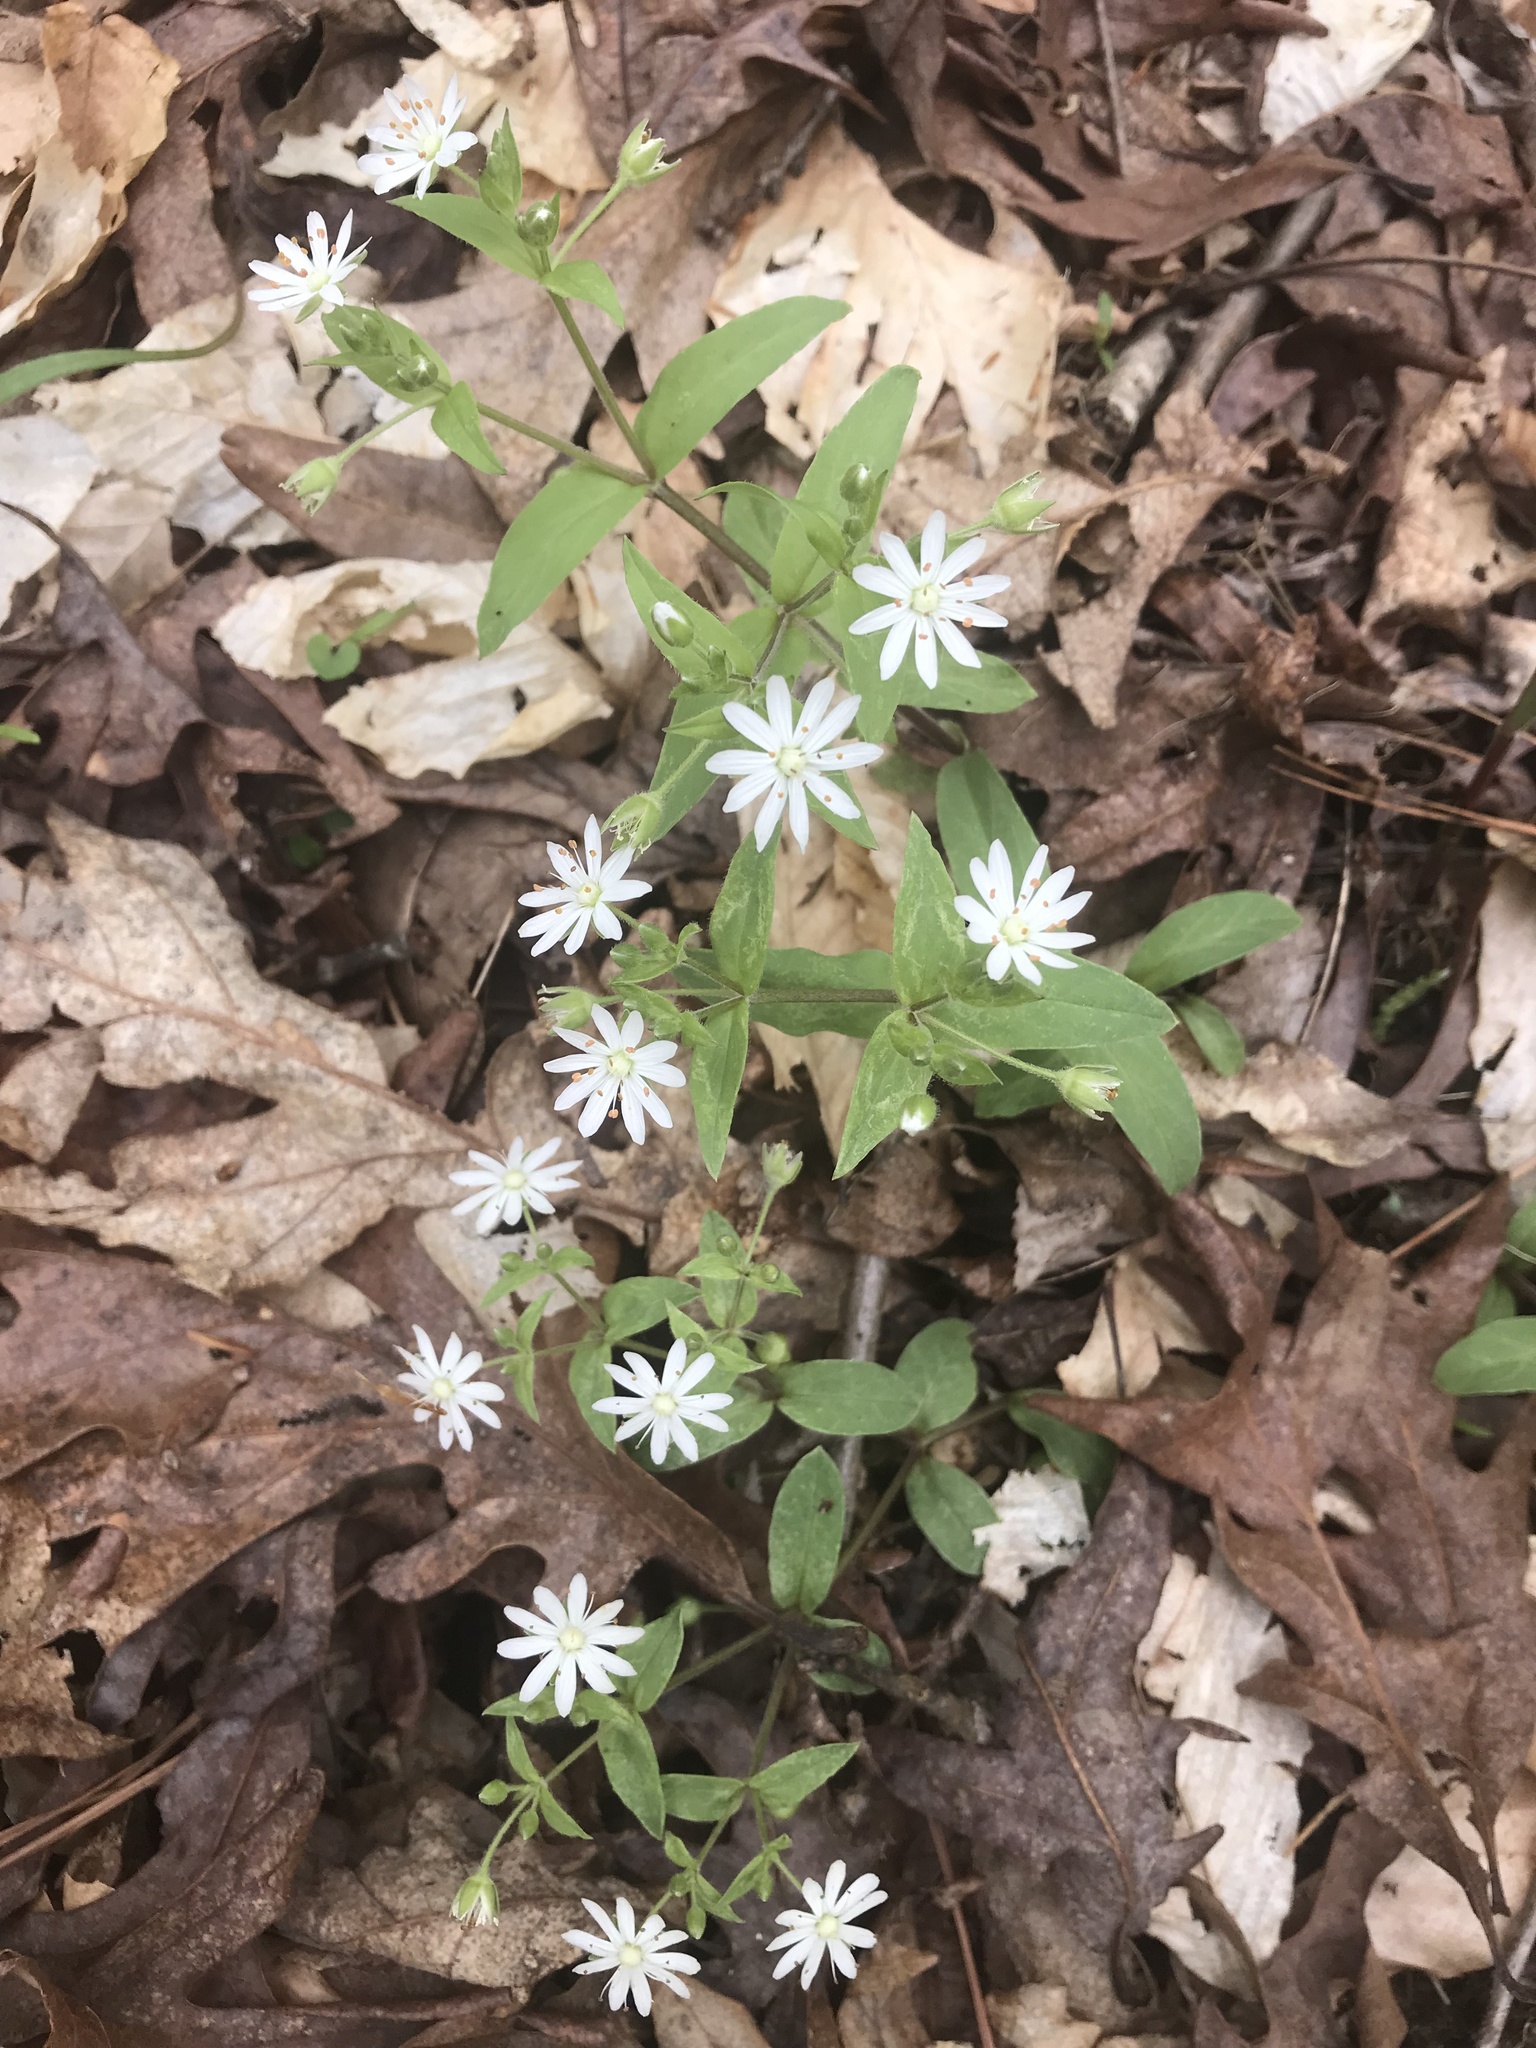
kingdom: Plantae
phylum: Tracheophyta
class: Magnoliopsida
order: Caryophyllales
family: Caryophyllaceae
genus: Stellaria
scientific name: Stellaria pubera
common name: Star chickweed
